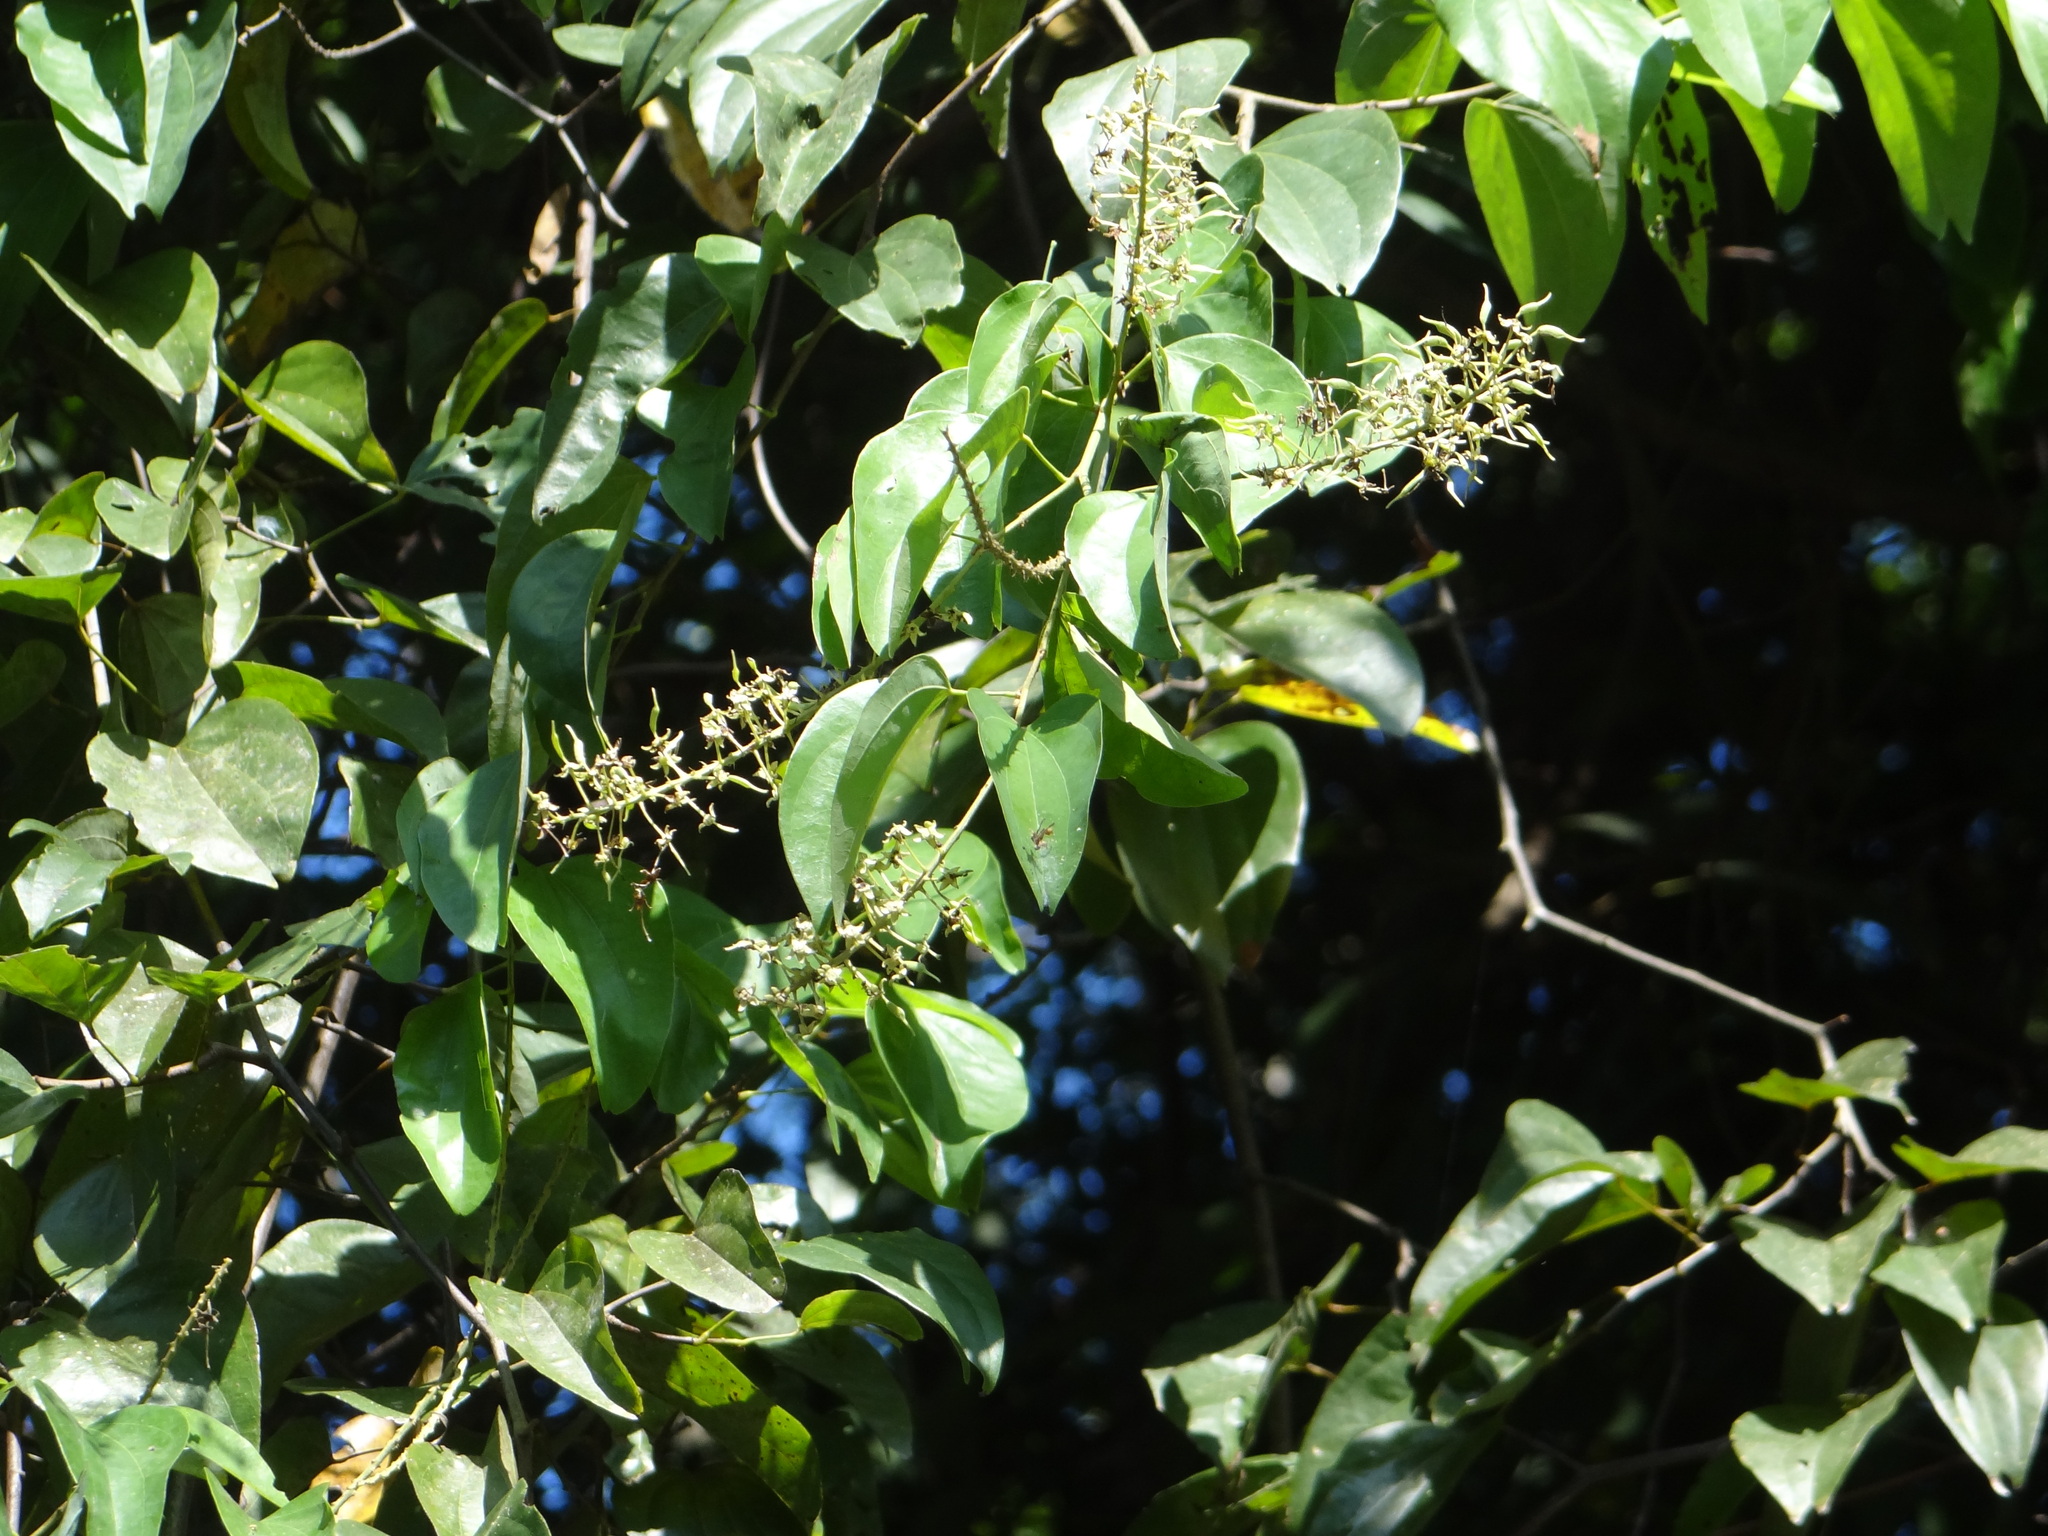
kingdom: Plantae
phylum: Tracheophyta
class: Magnoliopsida
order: Fabales
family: Fabaceae
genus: Phanera
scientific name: Phanera championii
